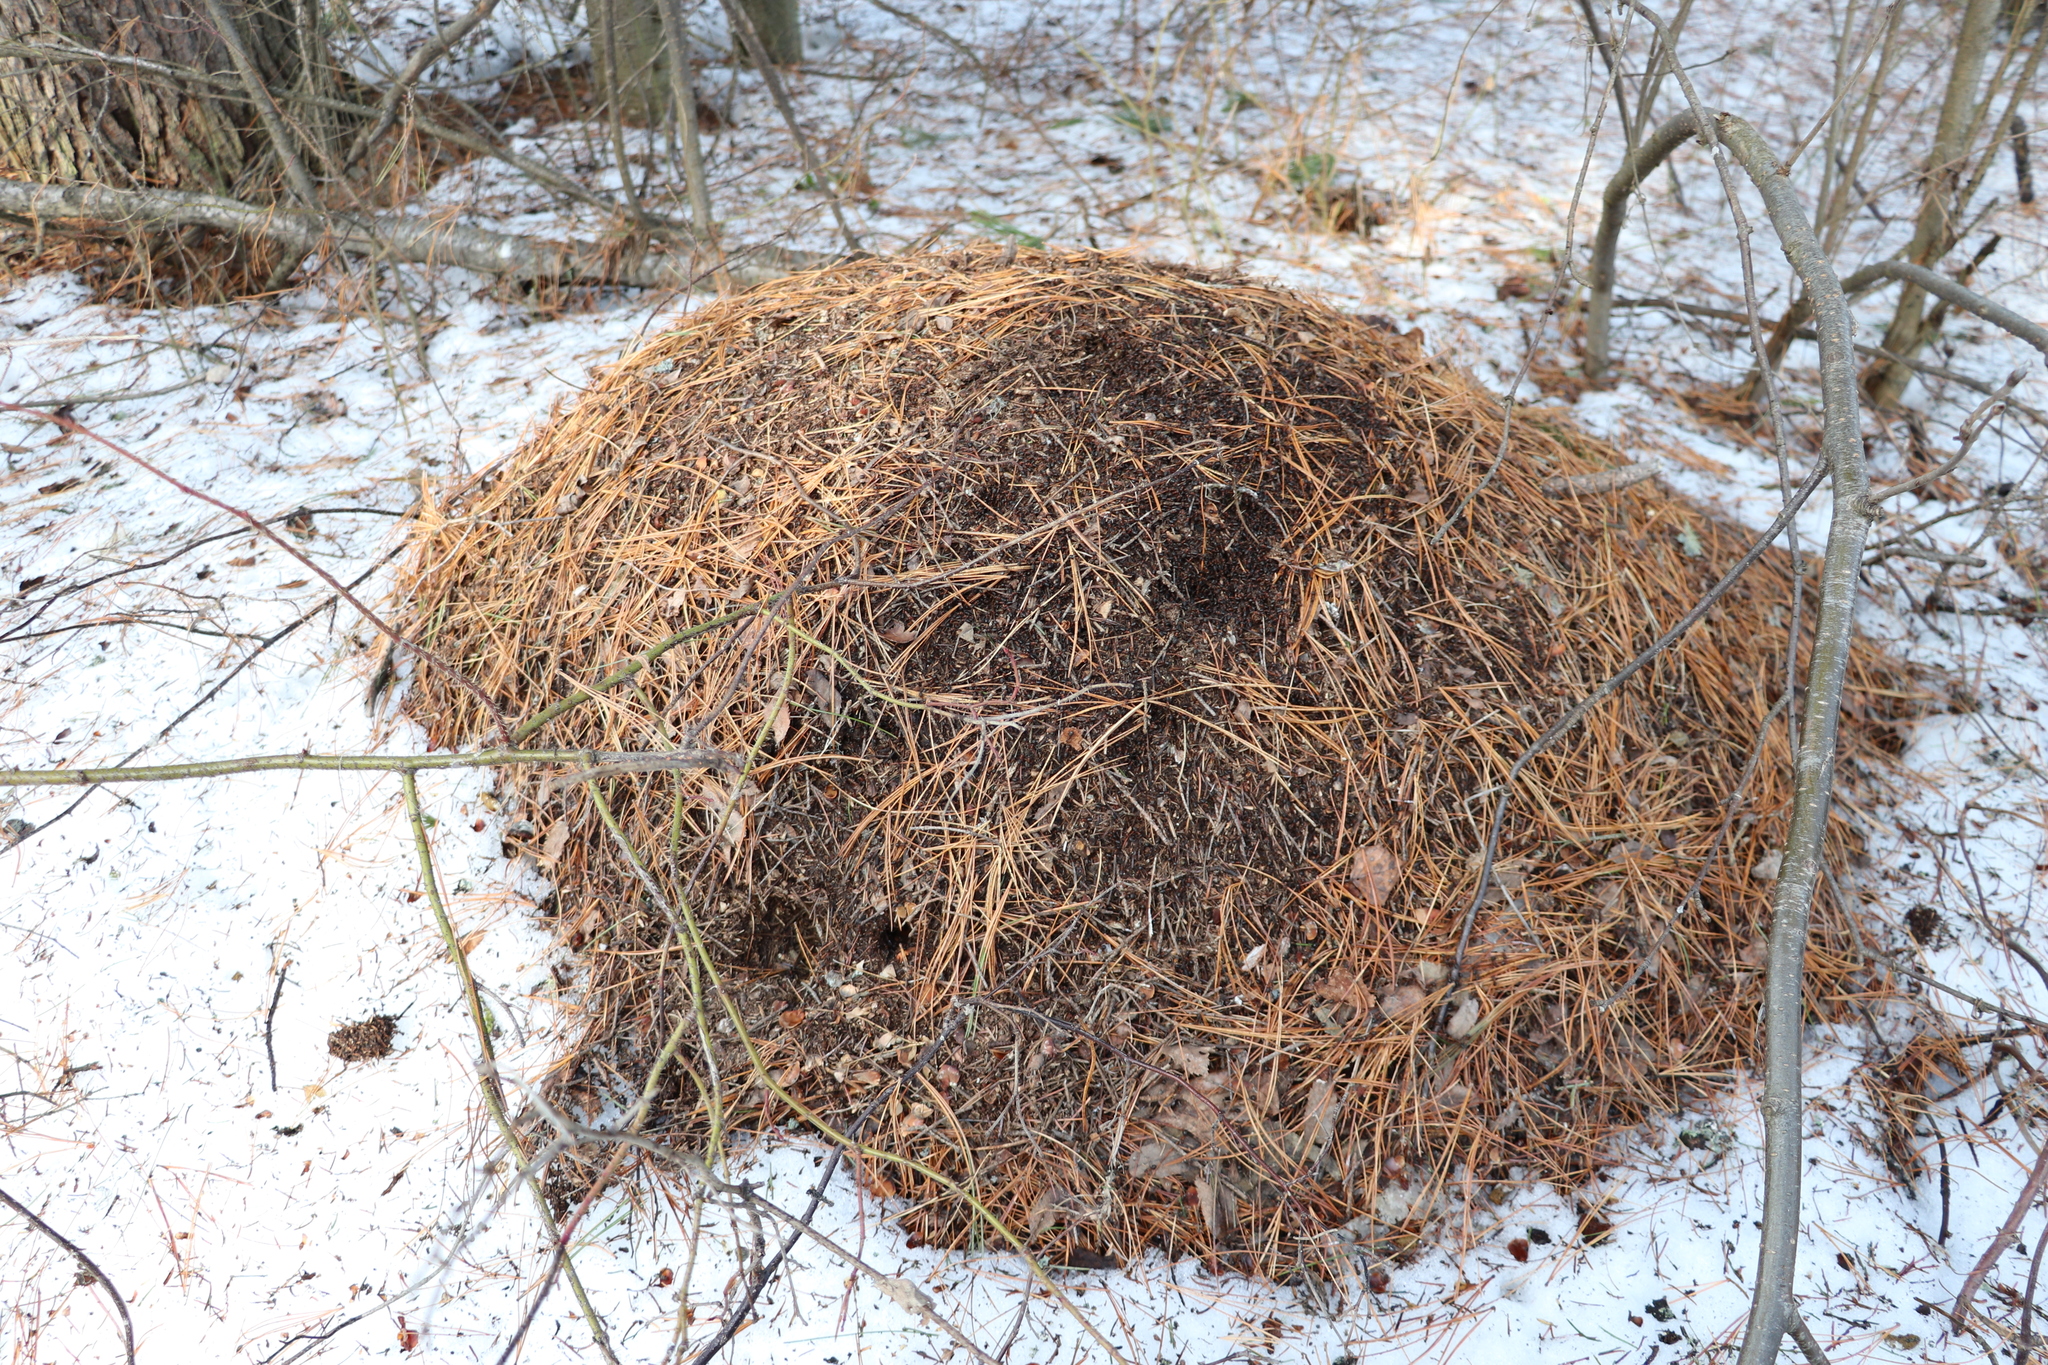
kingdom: Animalia
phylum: Arthropoda
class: Insecta
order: Hymenoptera
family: Formicidae
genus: Formica
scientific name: Formica rufa
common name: Red wood ant
